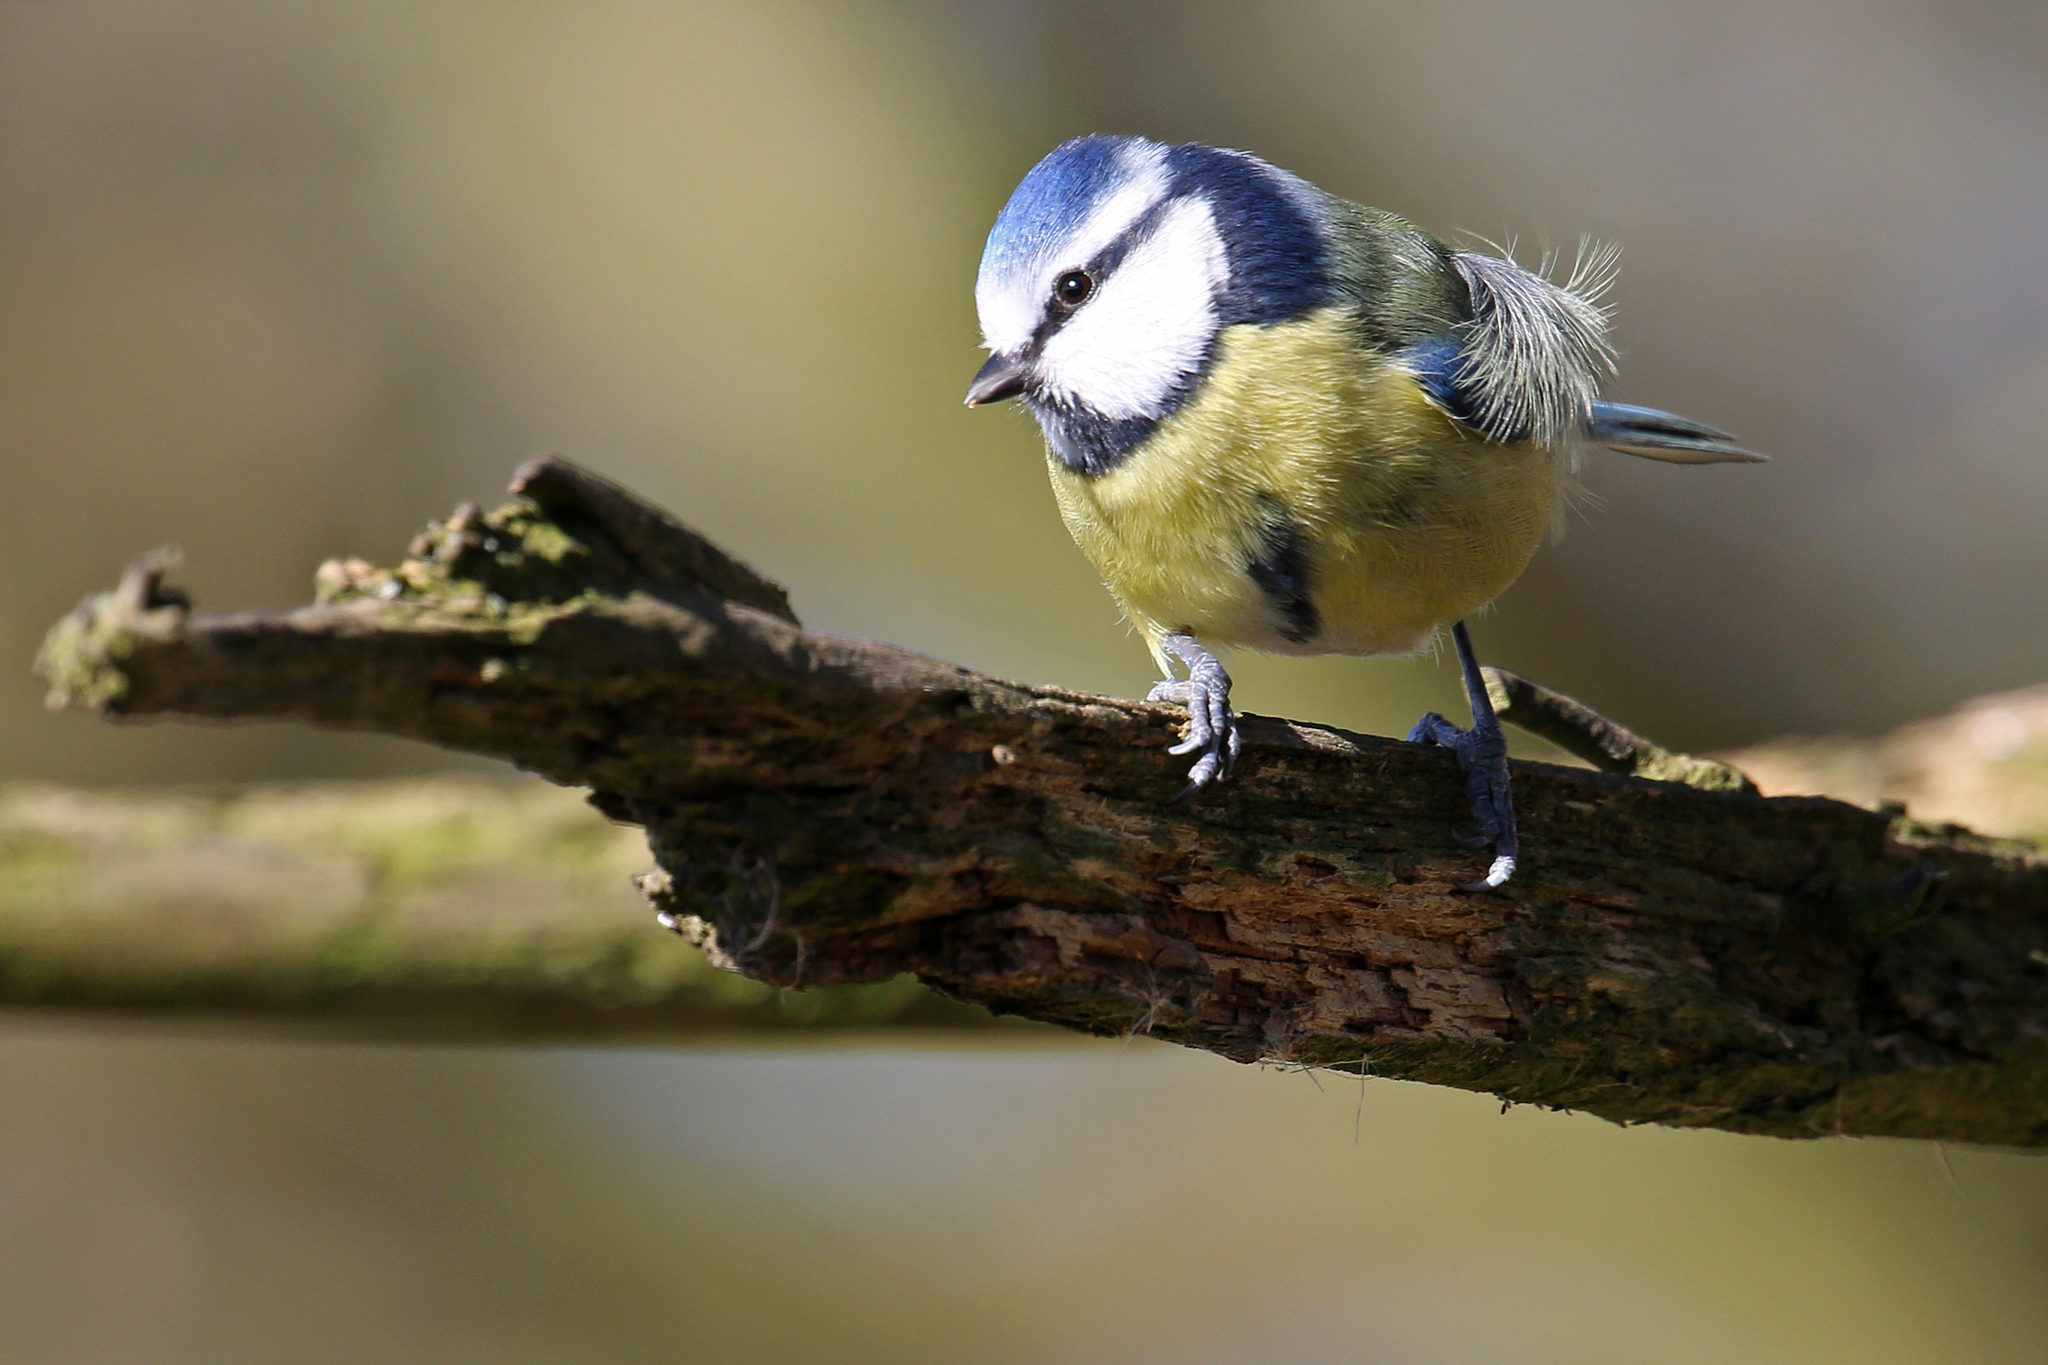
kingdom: Animalia
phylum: Chordata
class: Aves
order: Passeriformes
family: Paridae
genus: Cyanistes
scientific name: Cyanistes caeruleus
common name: Eurasian blue tit
